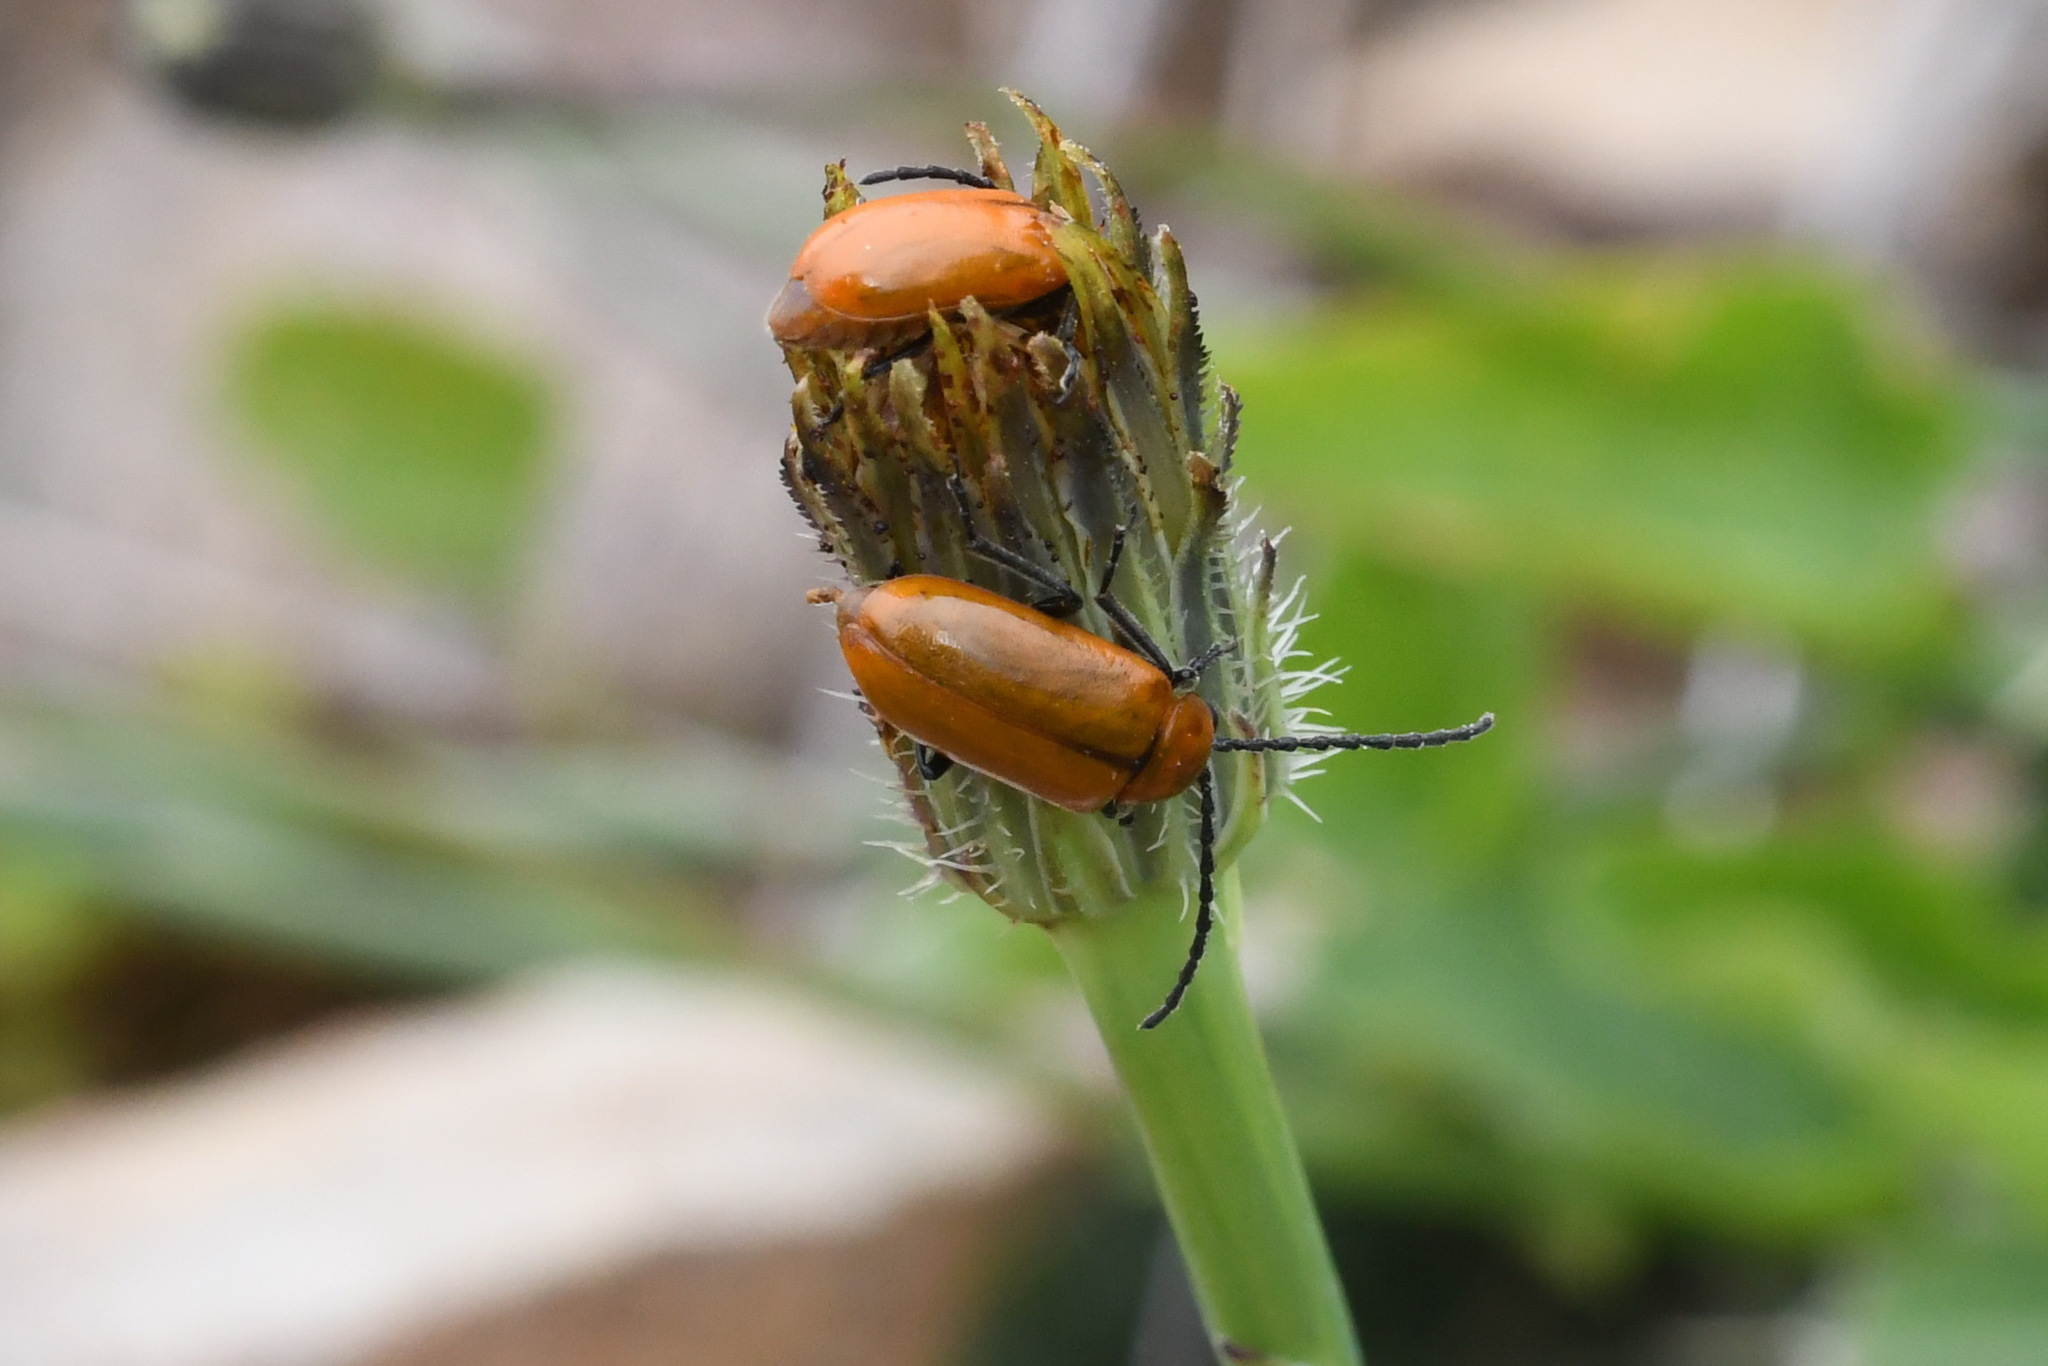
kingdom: Animalia
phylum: Arthropoda
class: Insecta
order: Coleoptera
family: Chrysomelidae
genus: Exosoma
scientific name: Exosoma lusitanicum
